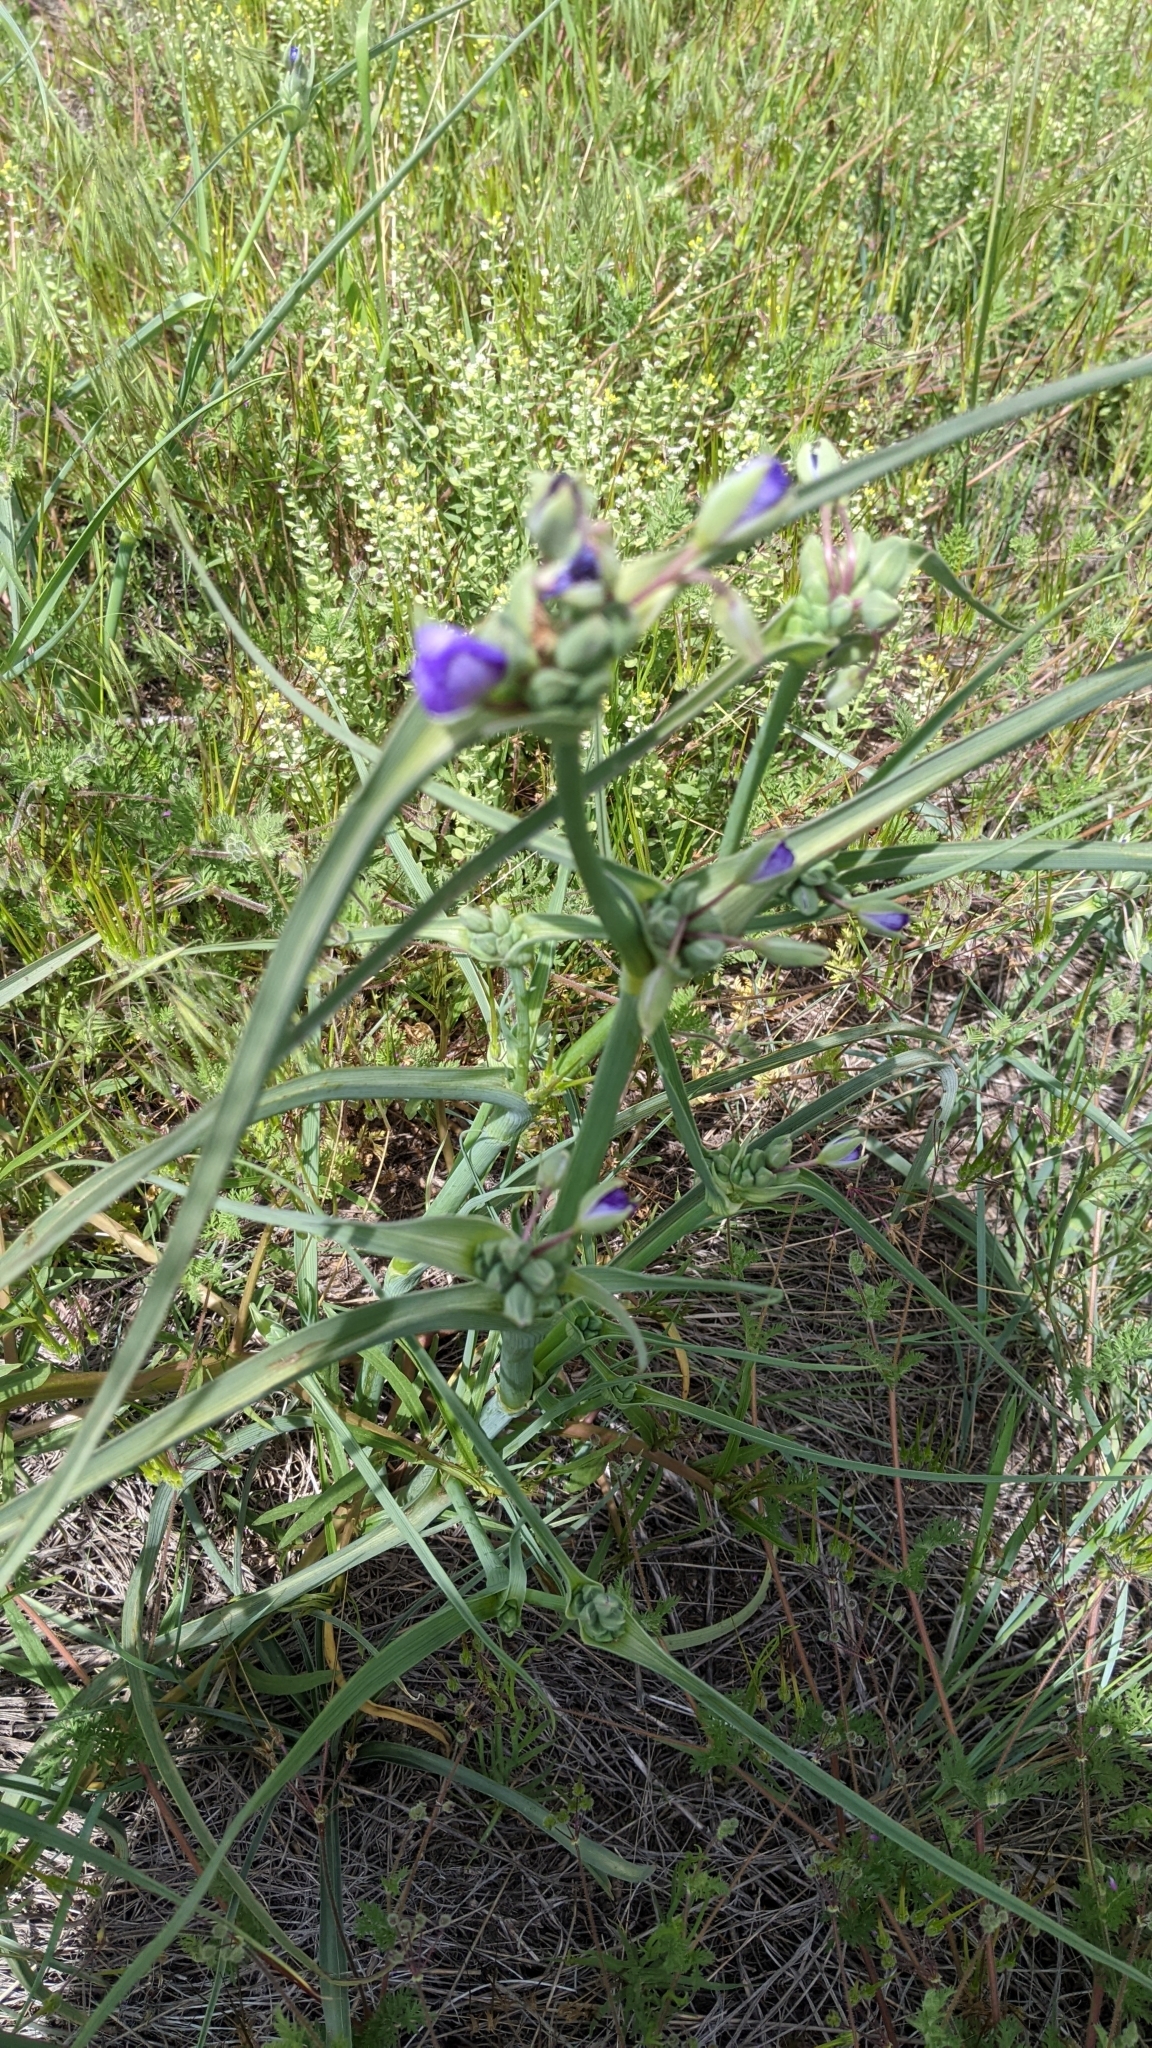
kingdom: Plantae
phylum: Tracheophyta
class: Liliopsida
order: Commelinales
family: Commelinaceae
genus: Tradescantia
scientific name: Tradescantia occidentalis
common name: Prairie spiderwort
